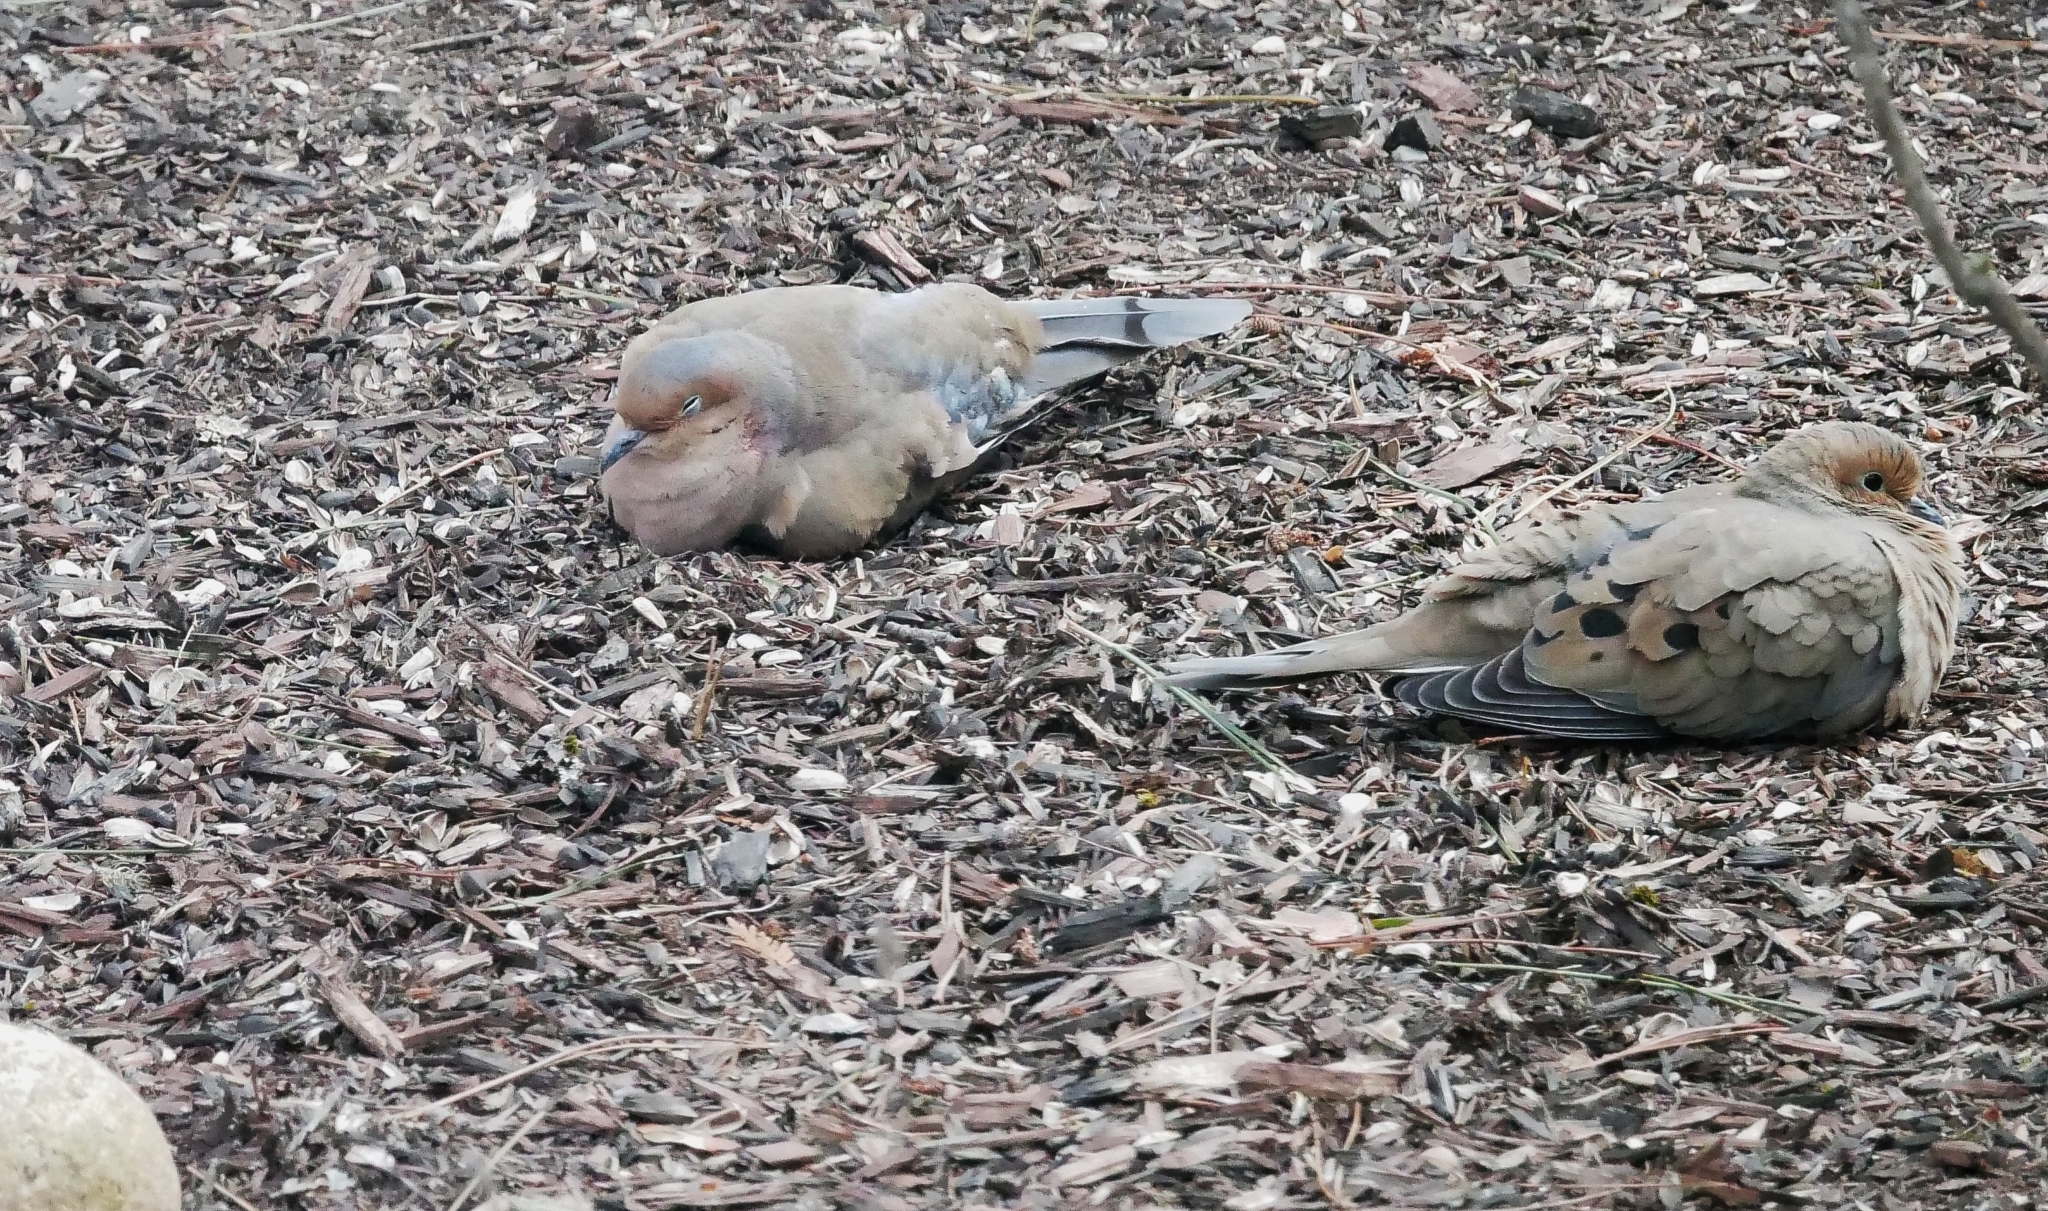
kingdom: Animalia
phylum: Chordata
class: Aves
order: Columbiformes
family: Columbidae
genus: Zenaida
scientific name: Zenaida macroura
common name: Mourning dove
